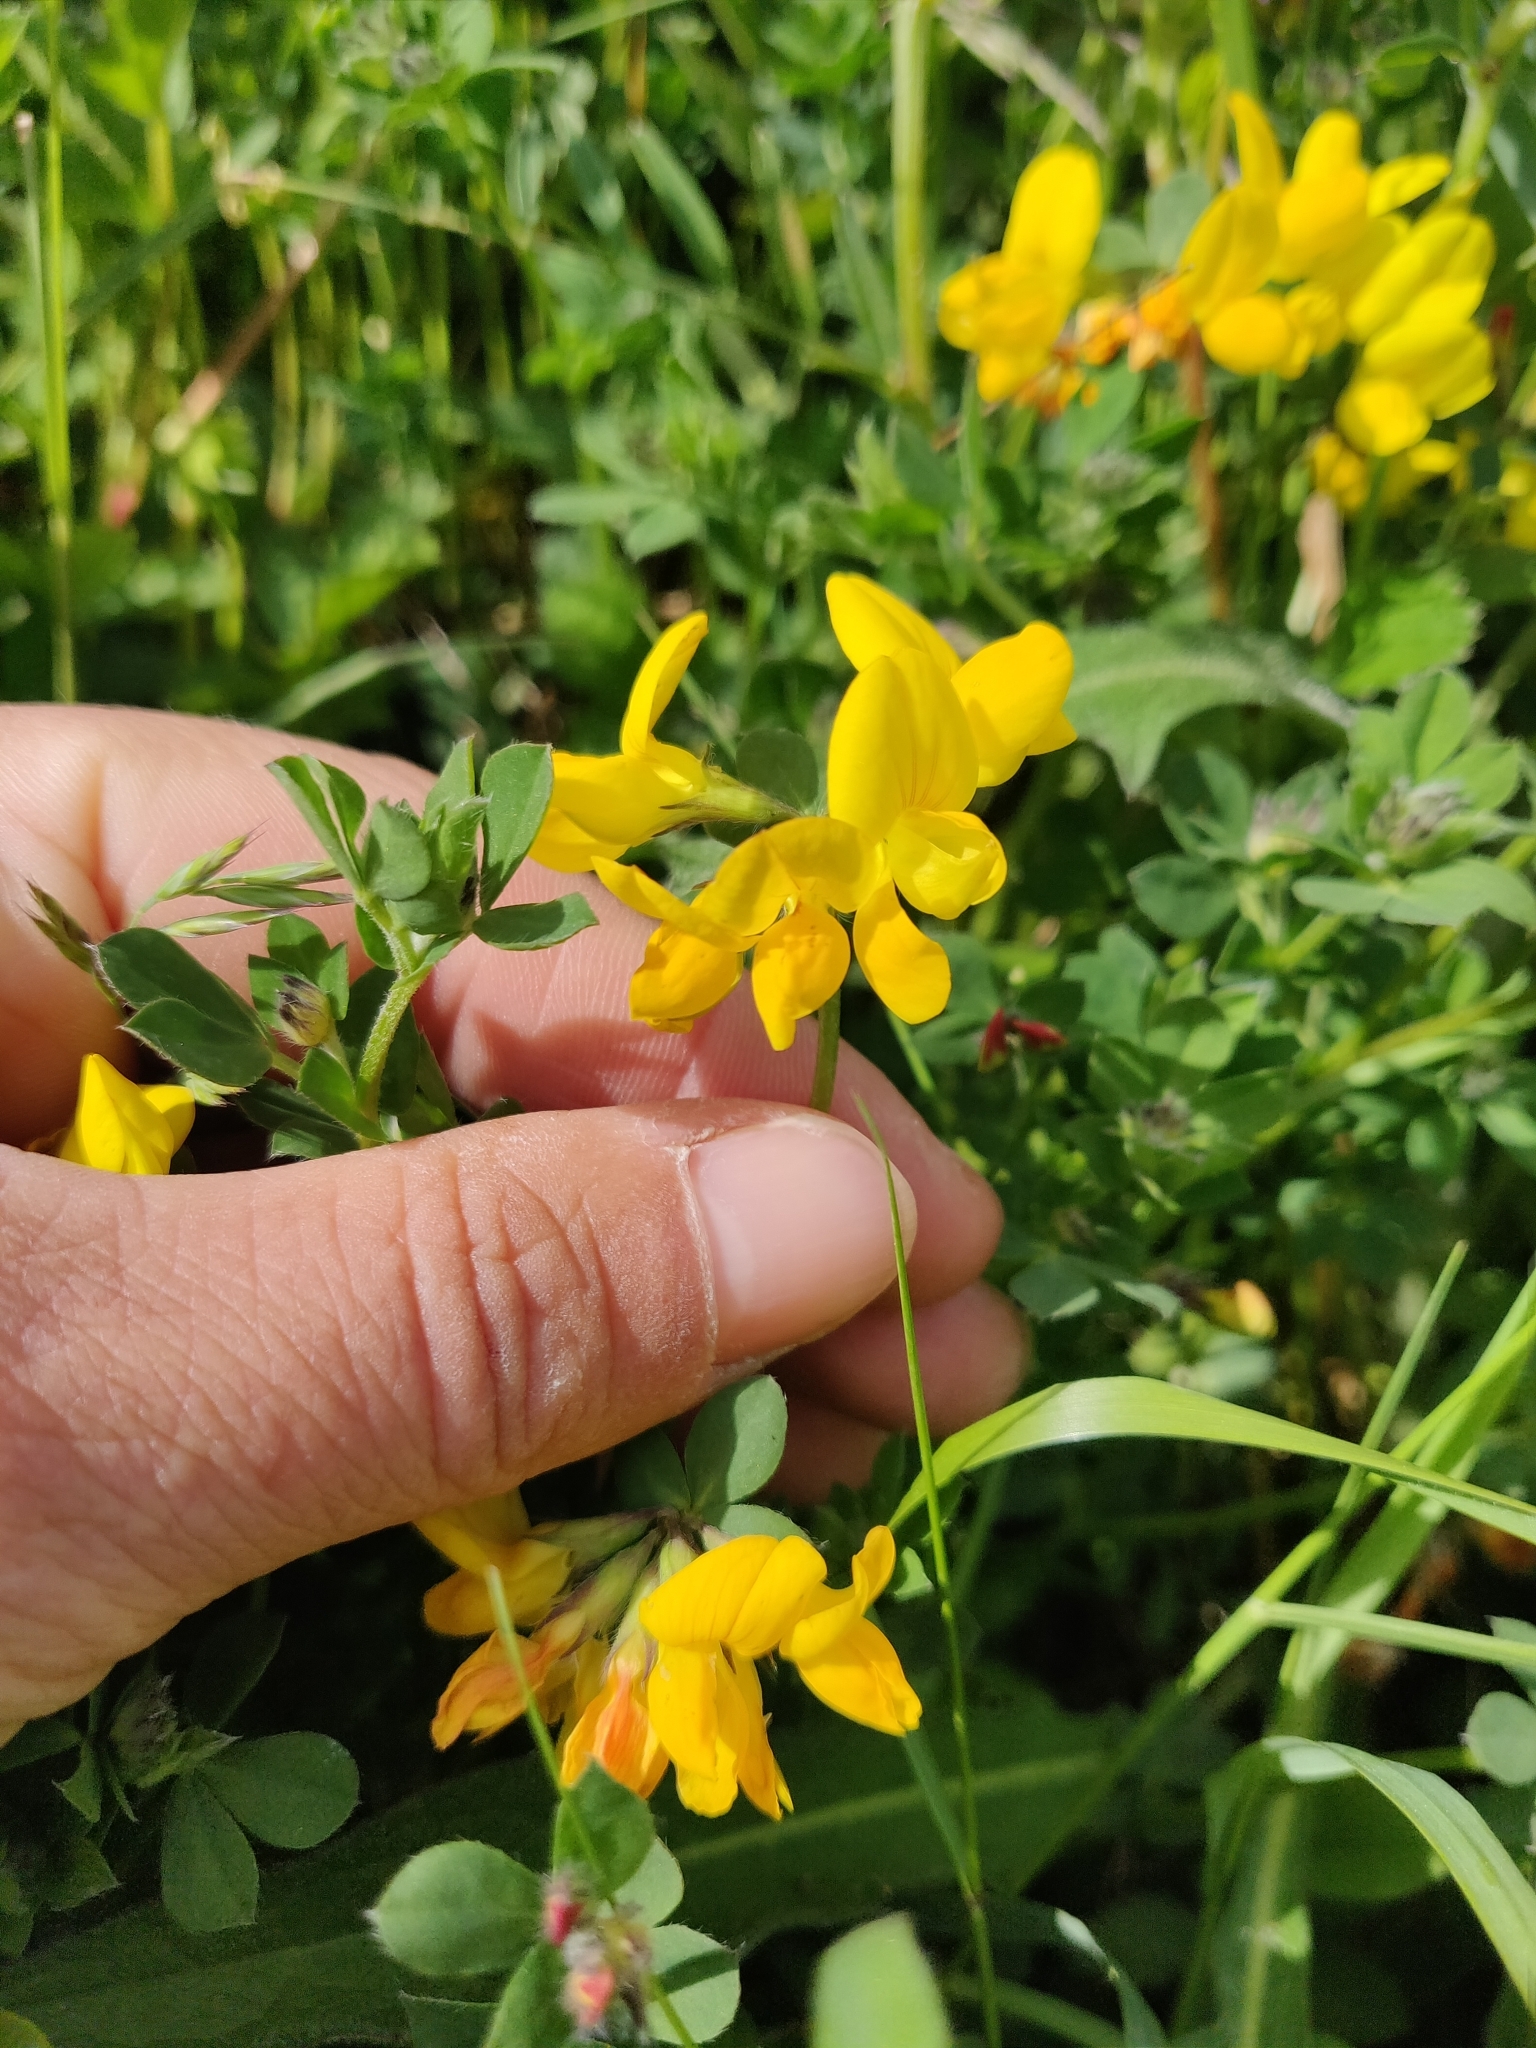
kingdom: Plantae
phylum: Tracheophyta
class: Magnoliopsida
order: Fabales
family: Fabaceae
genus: Lotus
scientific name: Lotus corniculatus
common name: Common bird's-foot-trefoil
